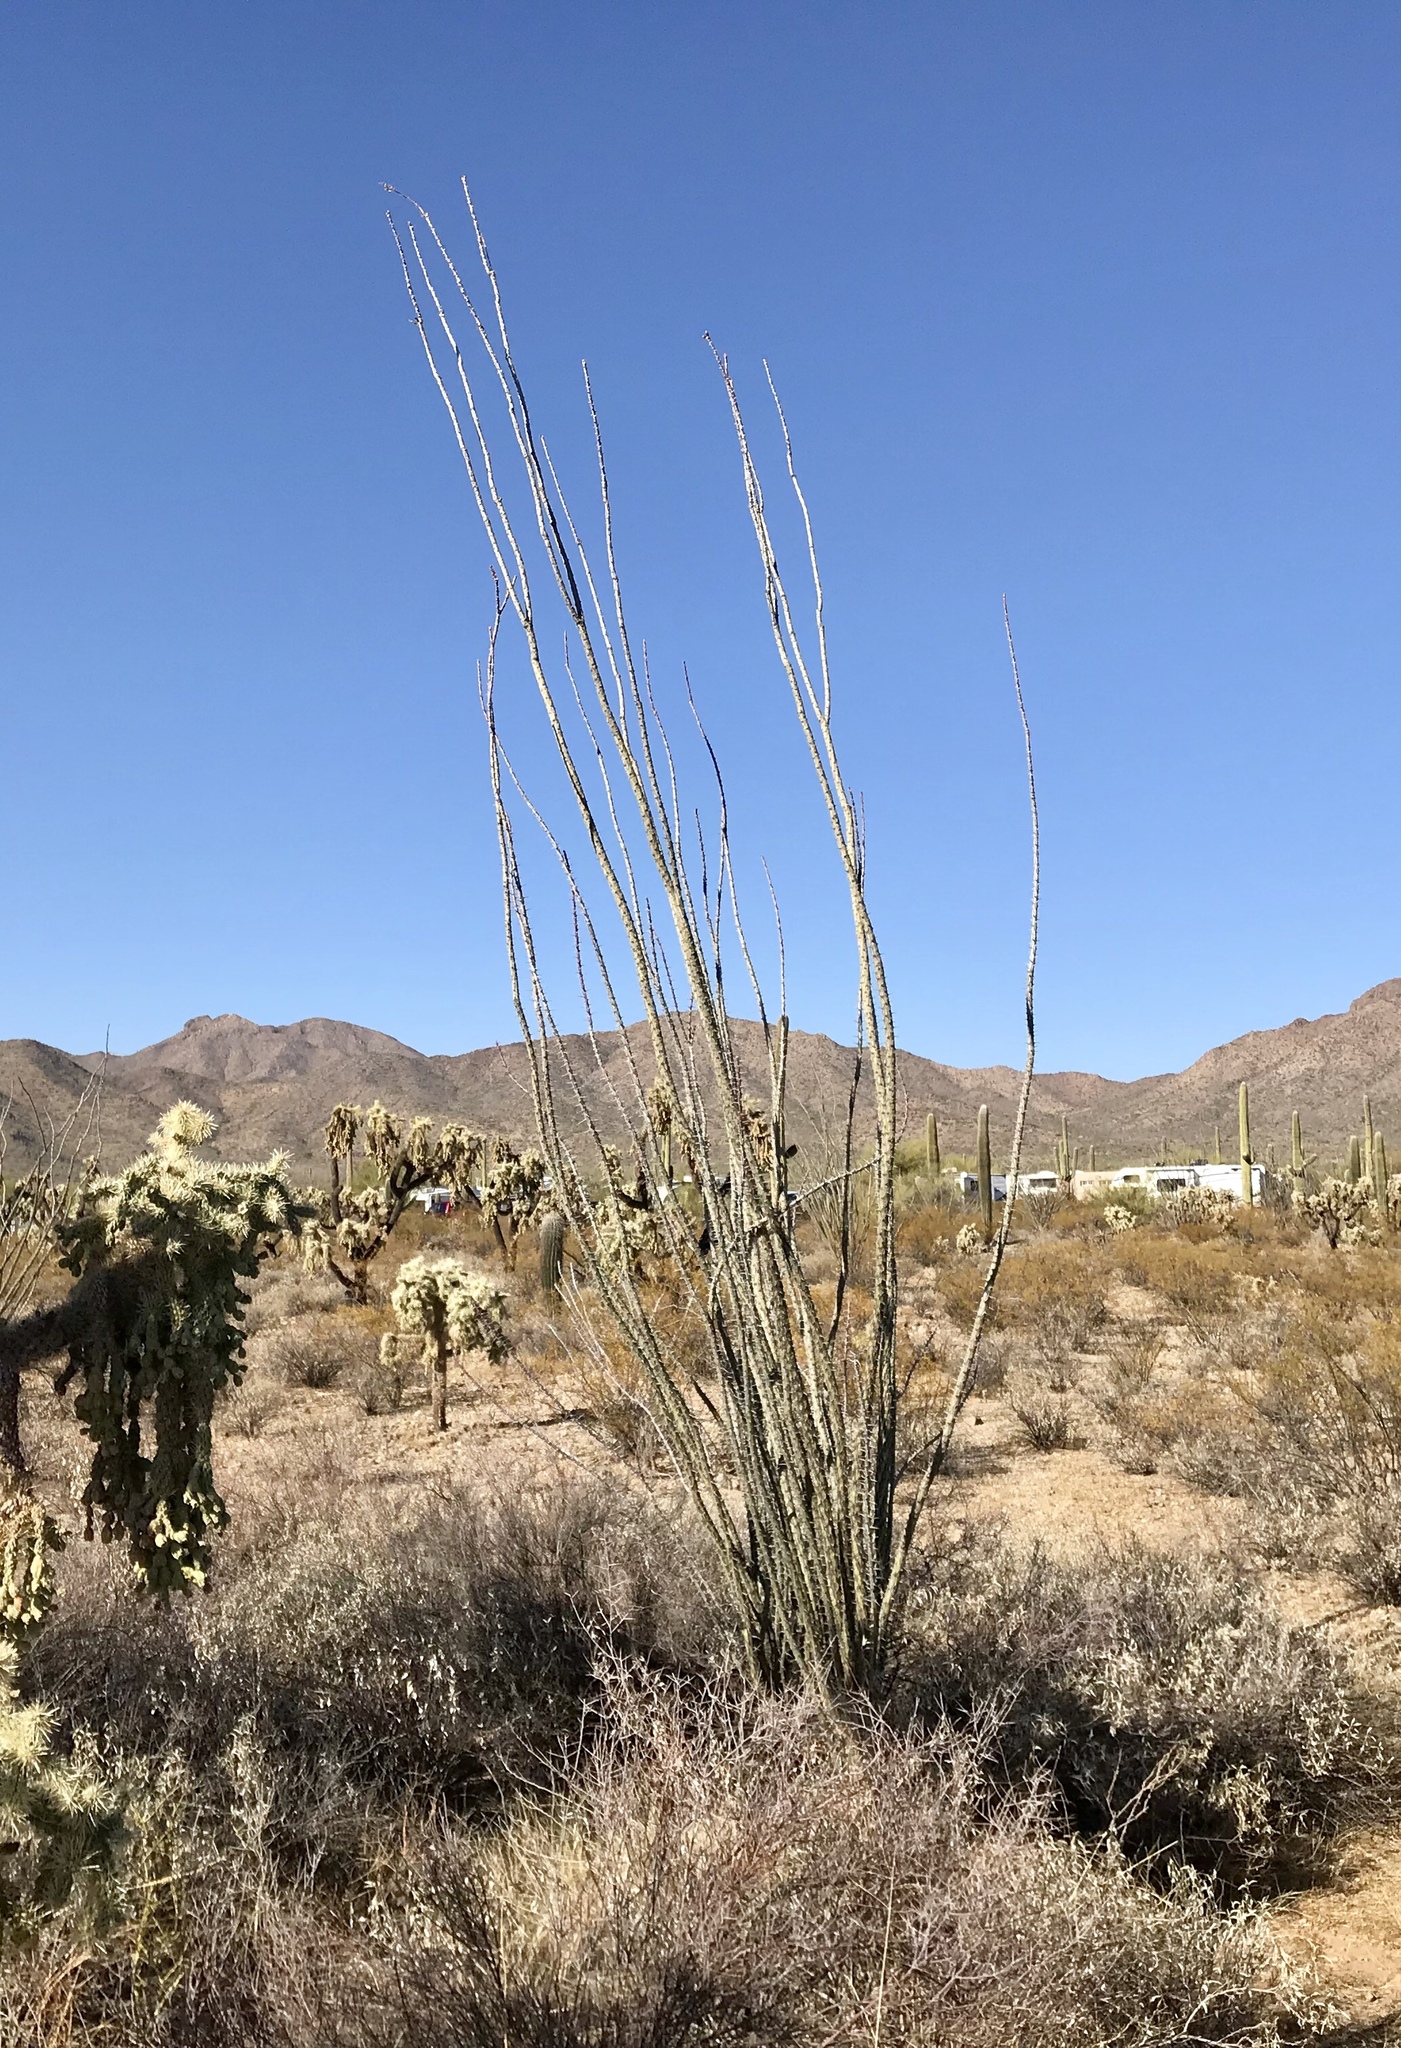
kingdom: Plantae
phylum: Tracheophyta
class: Magnoliopsida
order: Ericales
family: Fouquieriaceae
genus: Fouquieria
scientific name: Fouquieria splendens
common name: Vine-cactus
